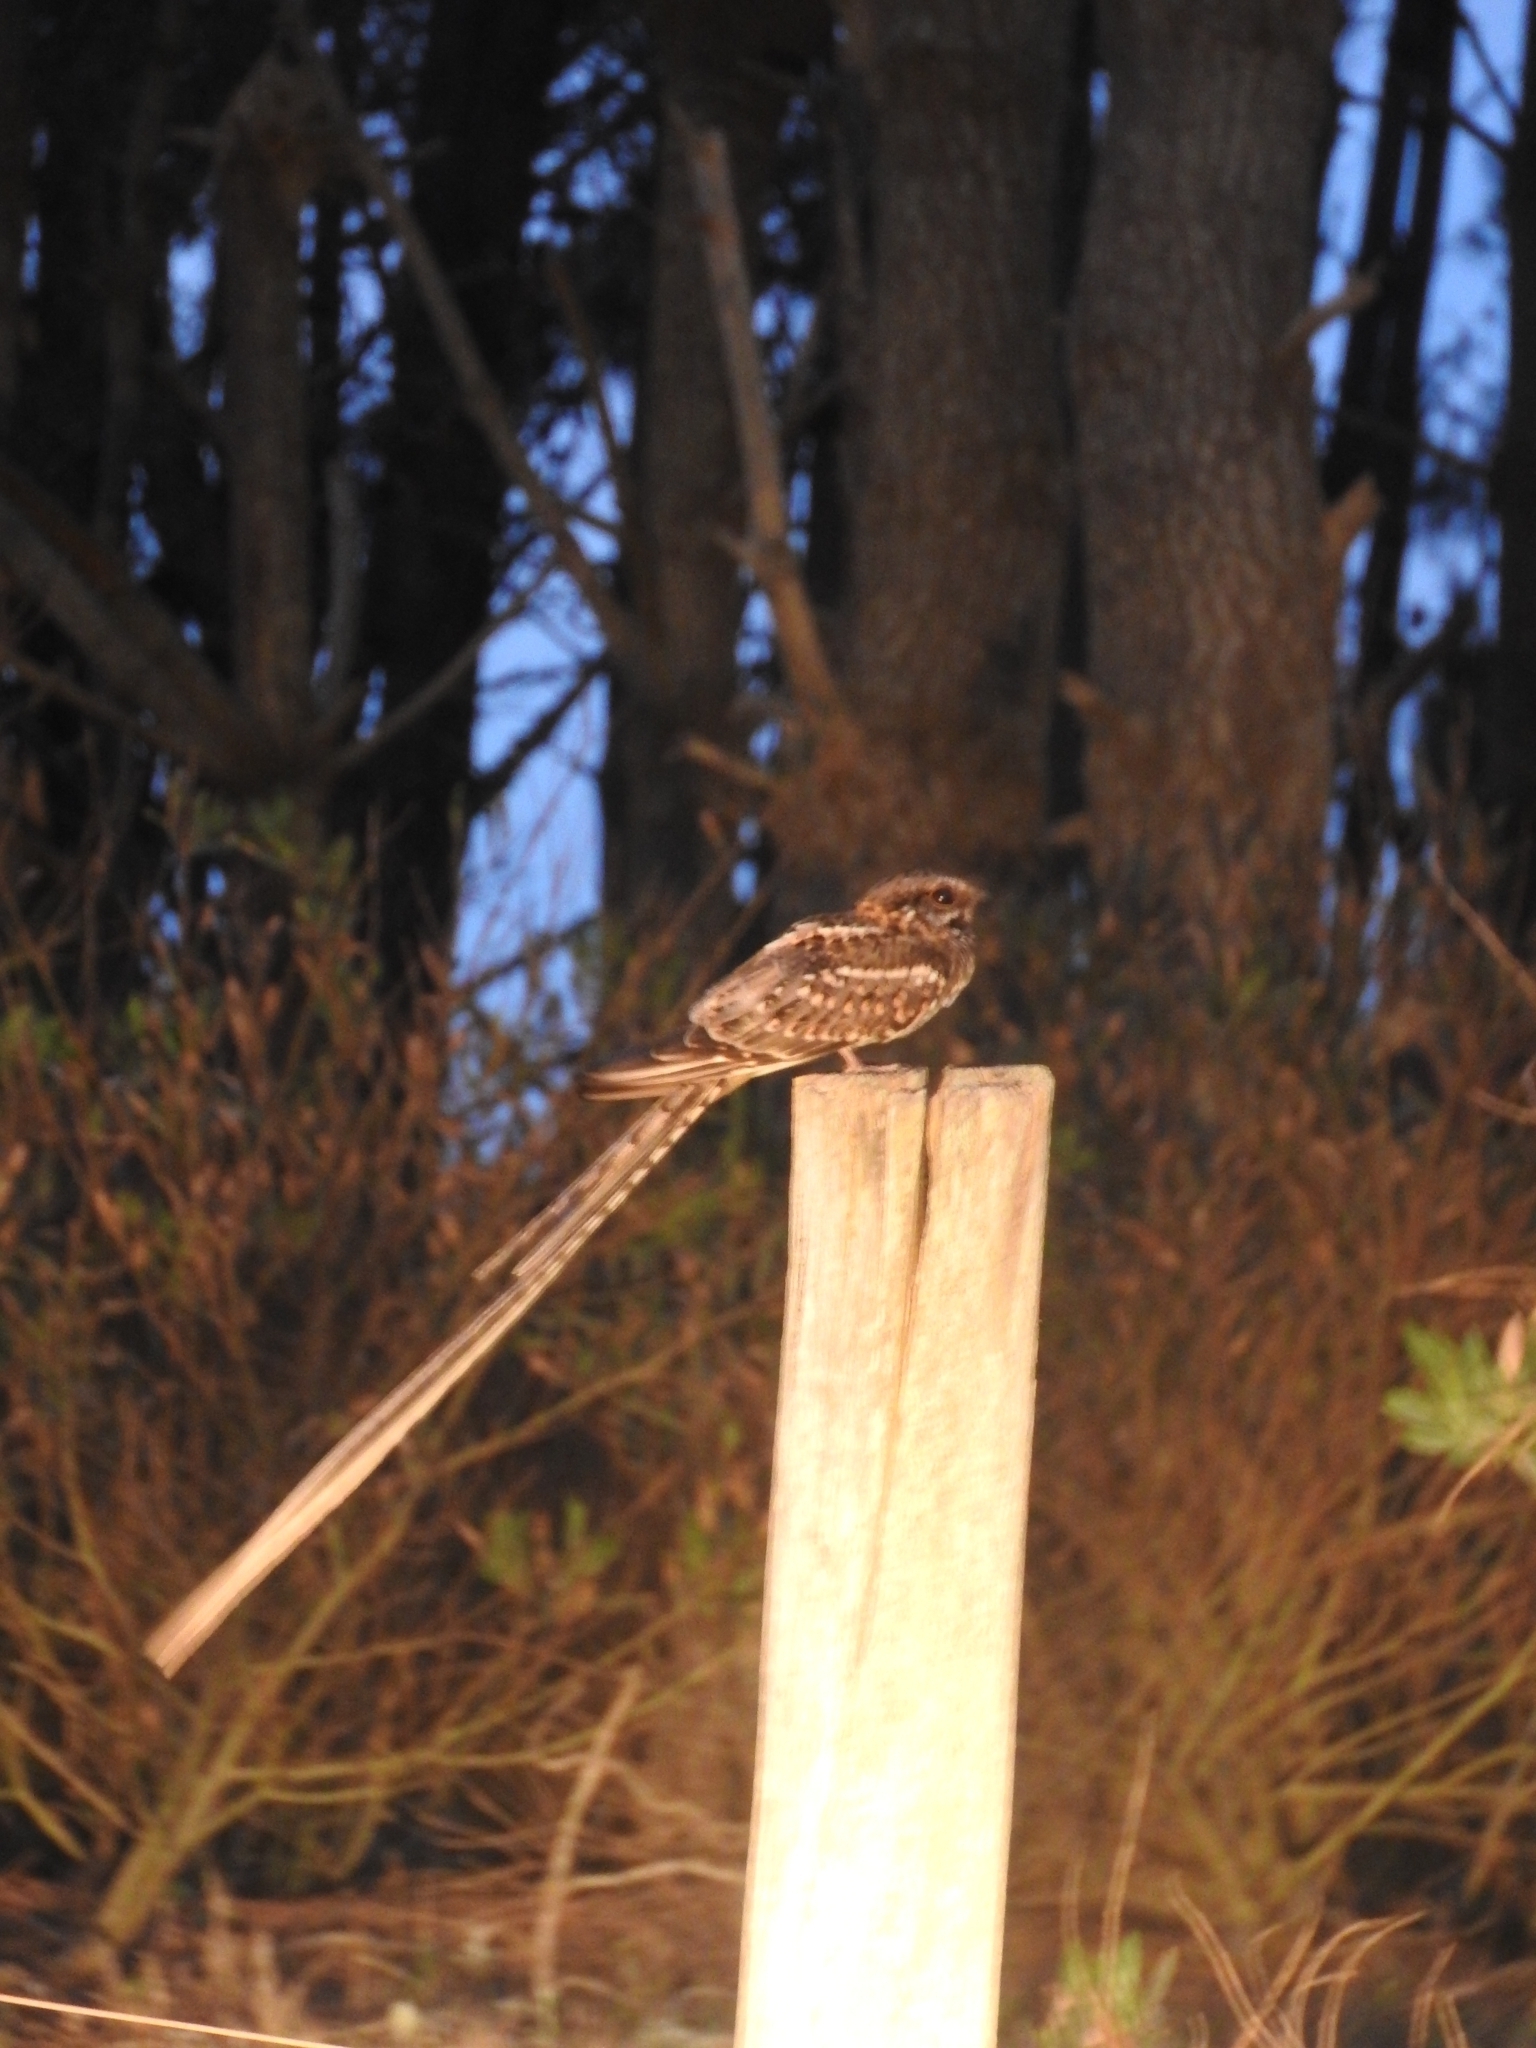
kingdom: Animalia
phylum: Chordata
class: Aves
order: Caprimulgiformes
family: Caprimulgidae
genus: Hydropsalis
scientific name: Hydropsalis torquata
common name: Scissor-tailed nightjar
